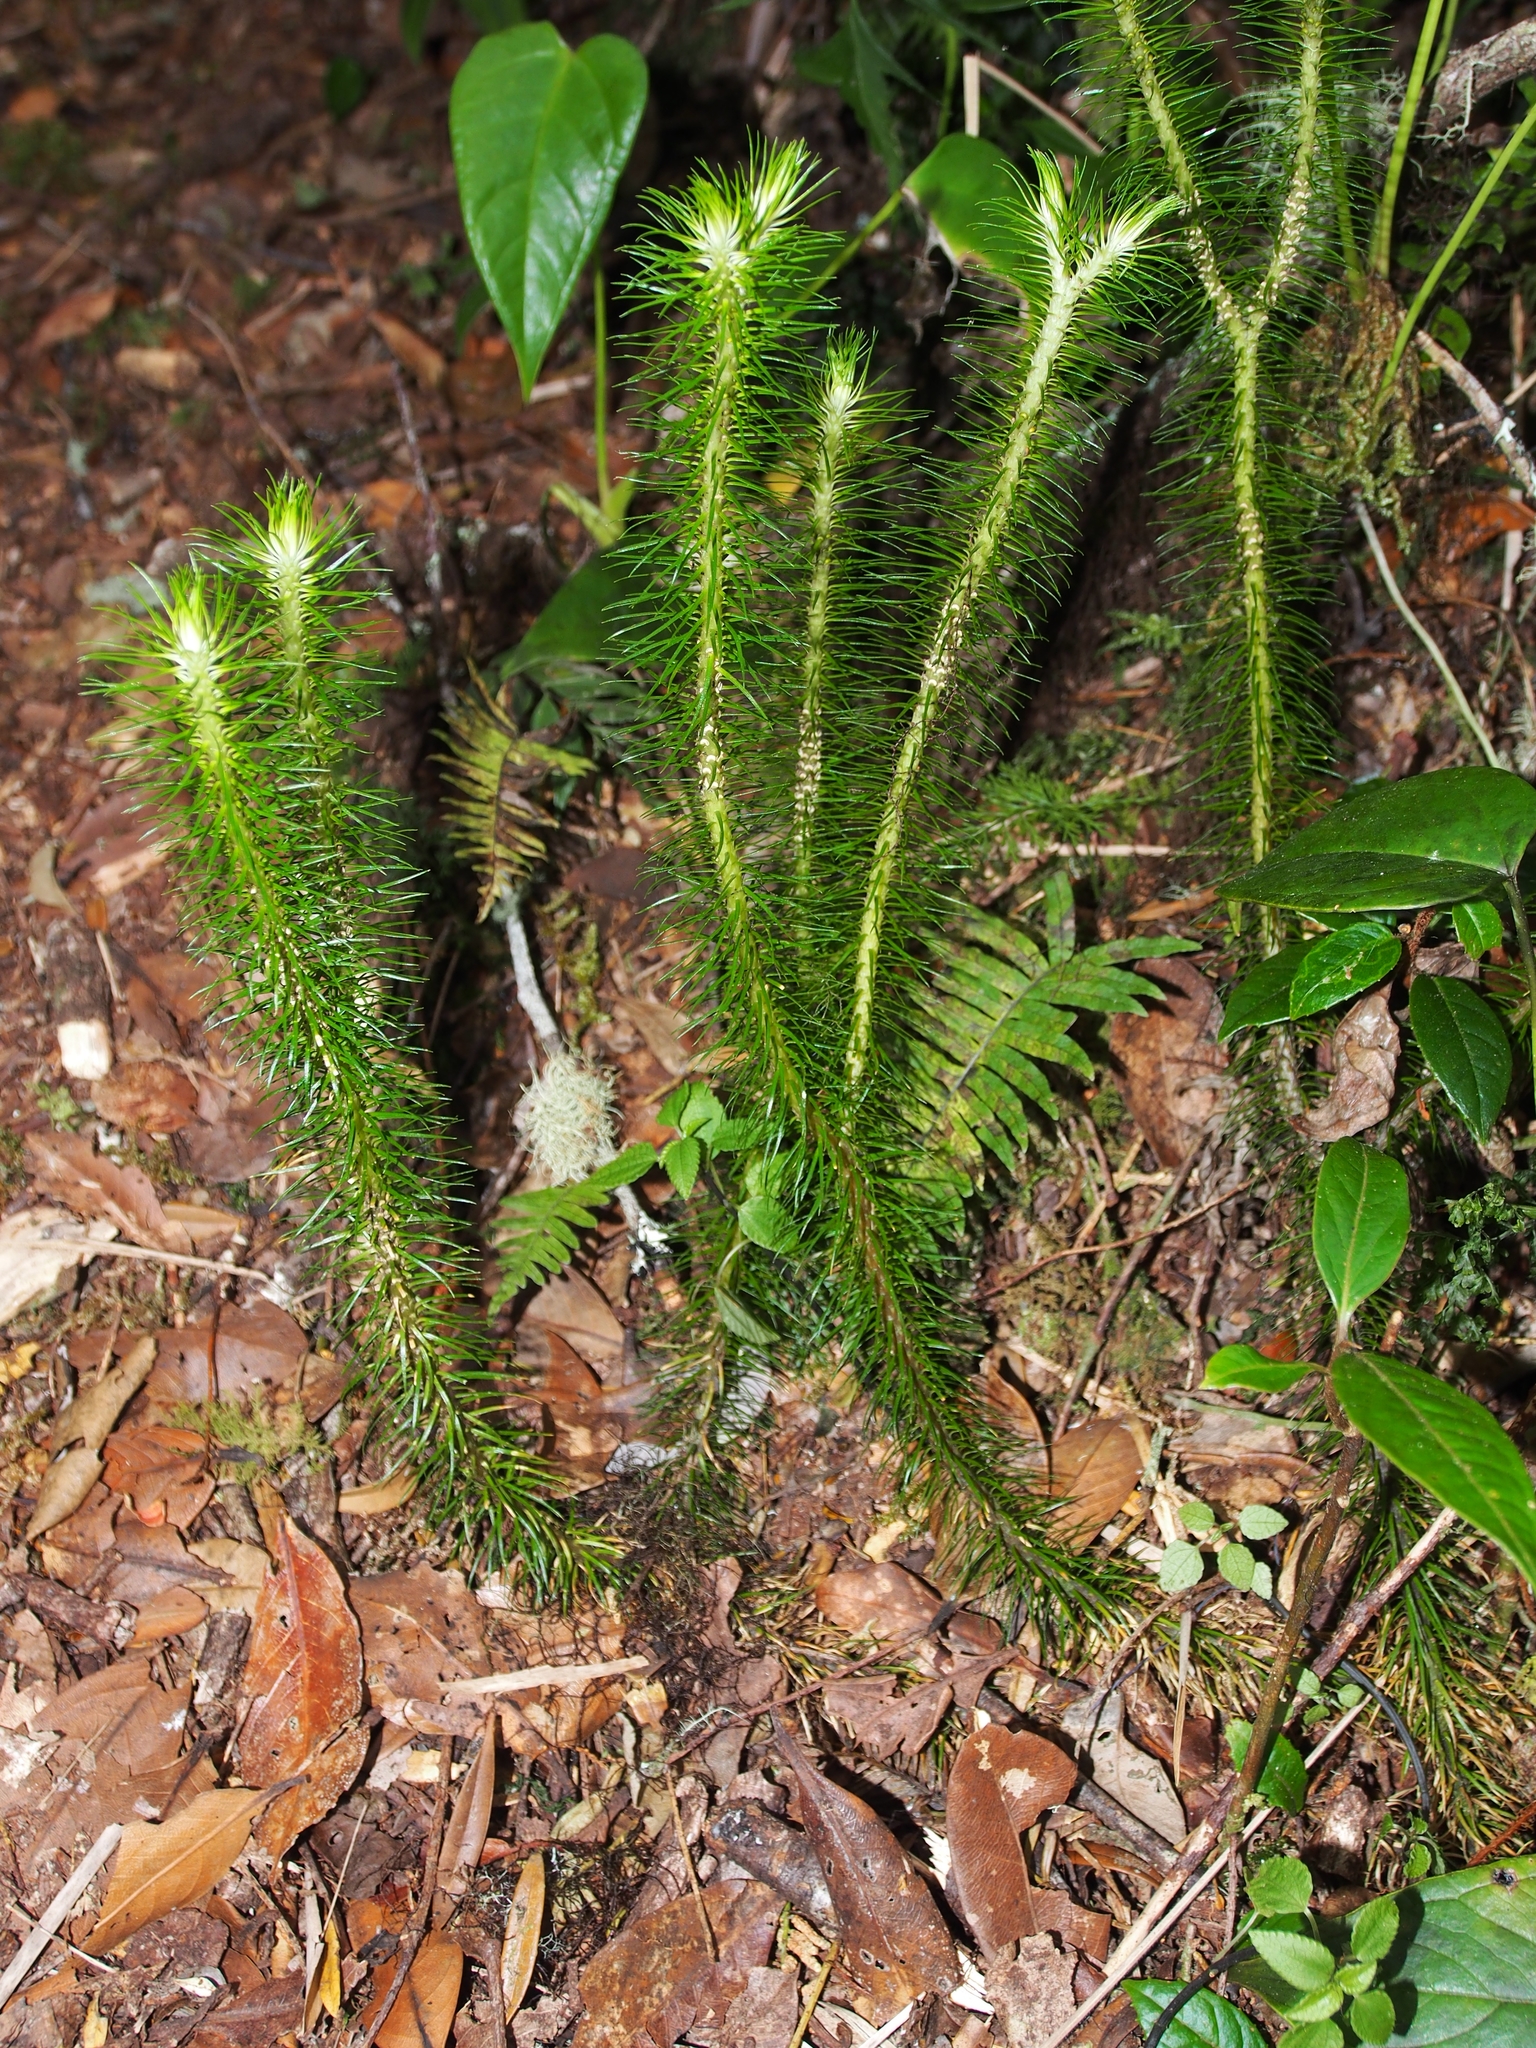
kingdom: Plantae
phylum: Tracheophyta
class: Lycopodiopsida
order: Lycopodiales
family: Lycopodiaceae
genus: Phlegmariurus
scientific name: Phlegmariurus hippurideus
